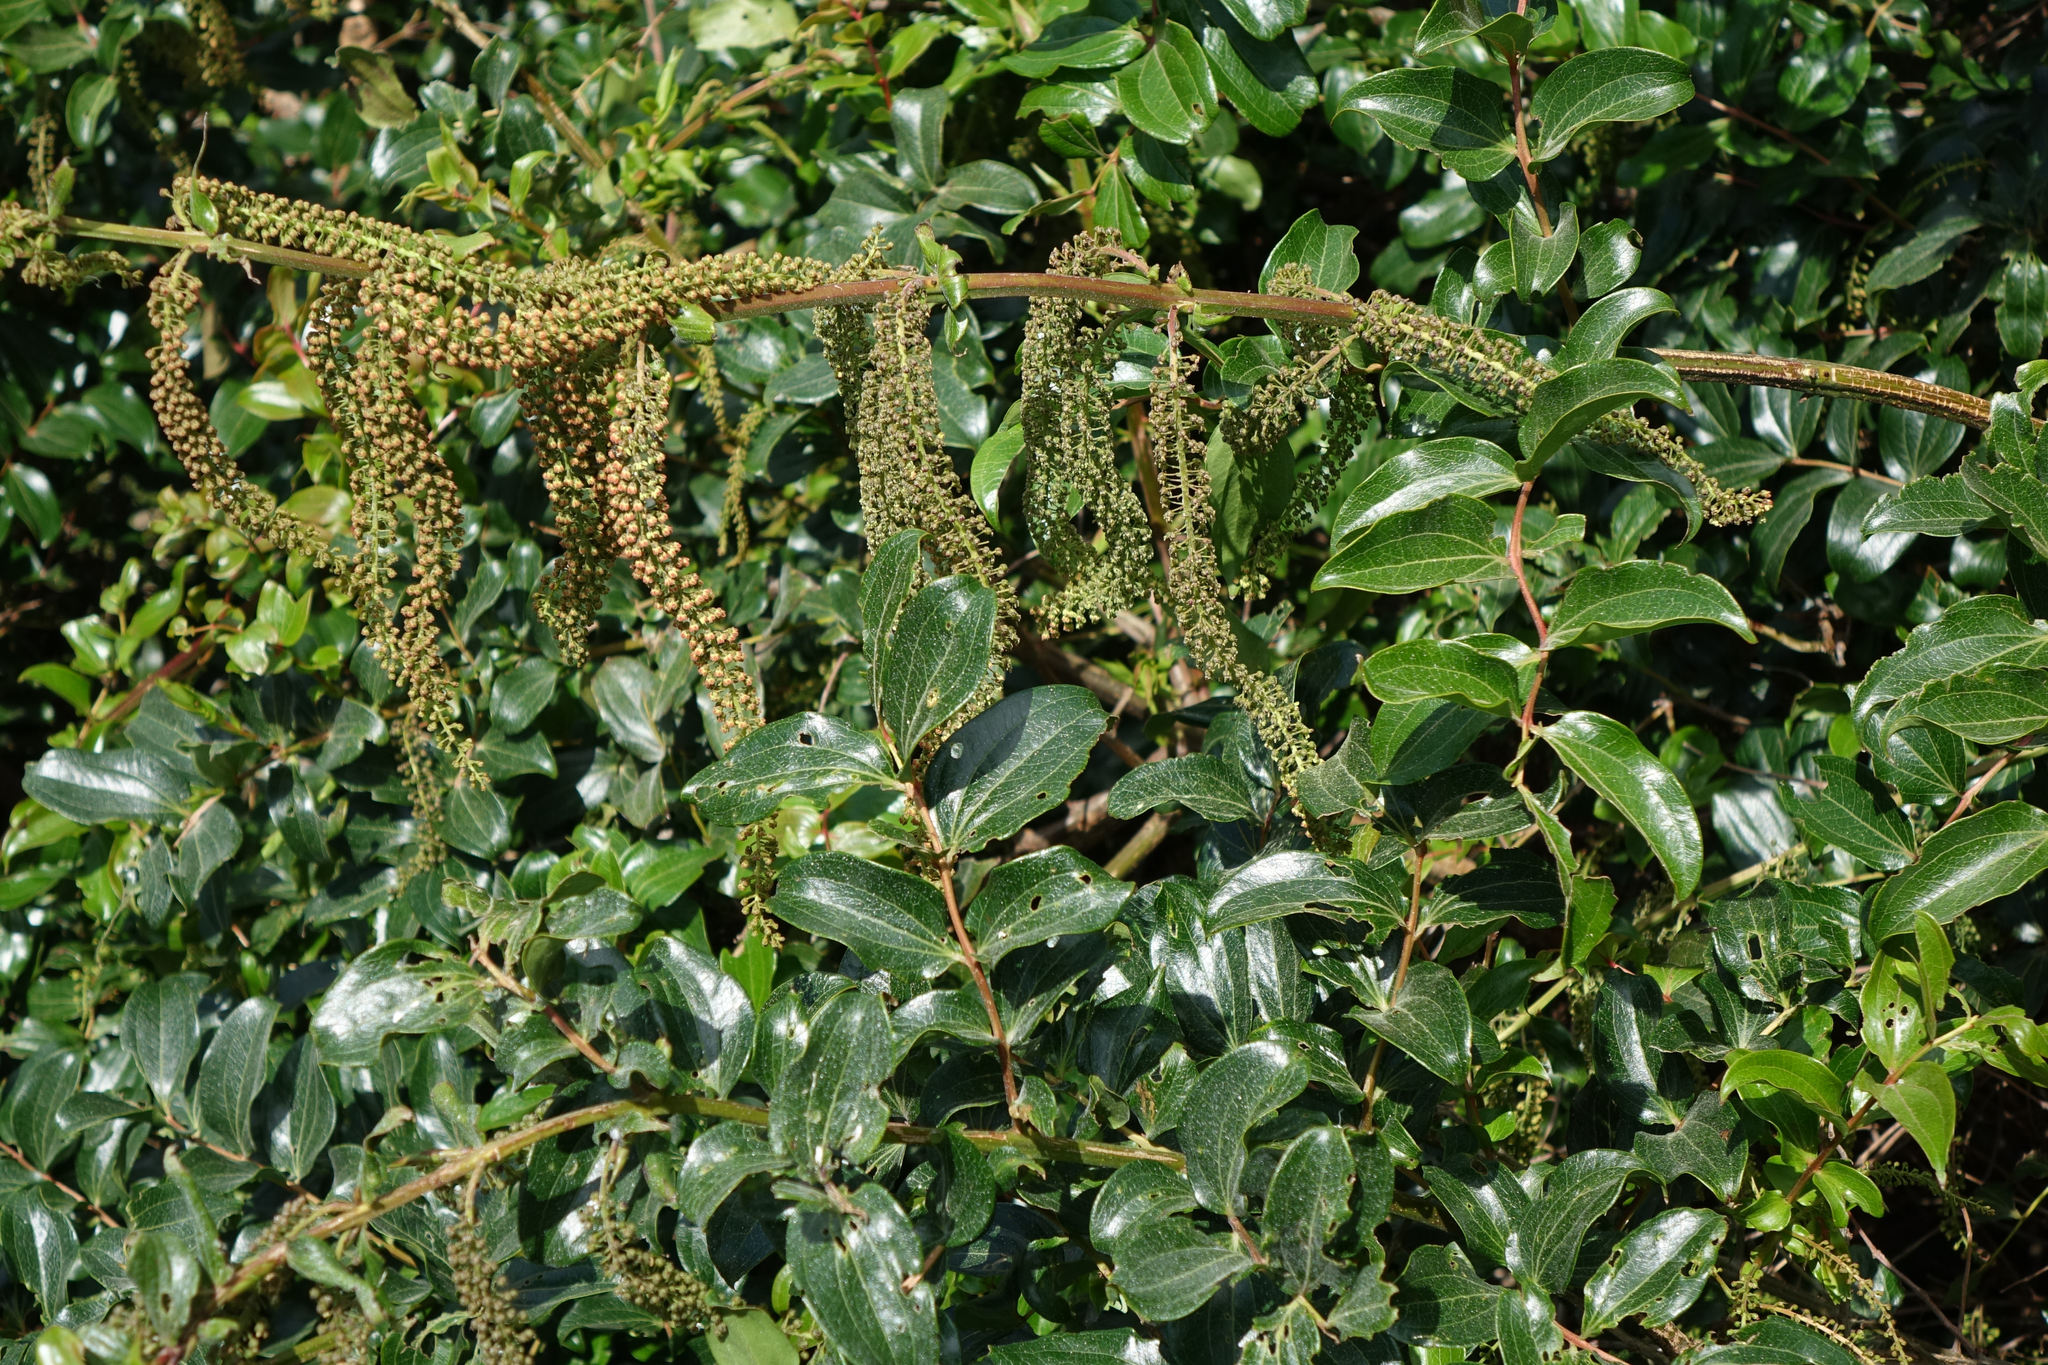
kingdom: Plantae
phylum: Tracheophyta
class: Magnoliopsida
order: Cucurbitales
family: Coriariaceae
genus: Coriaria
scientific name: Coriaria arborea
